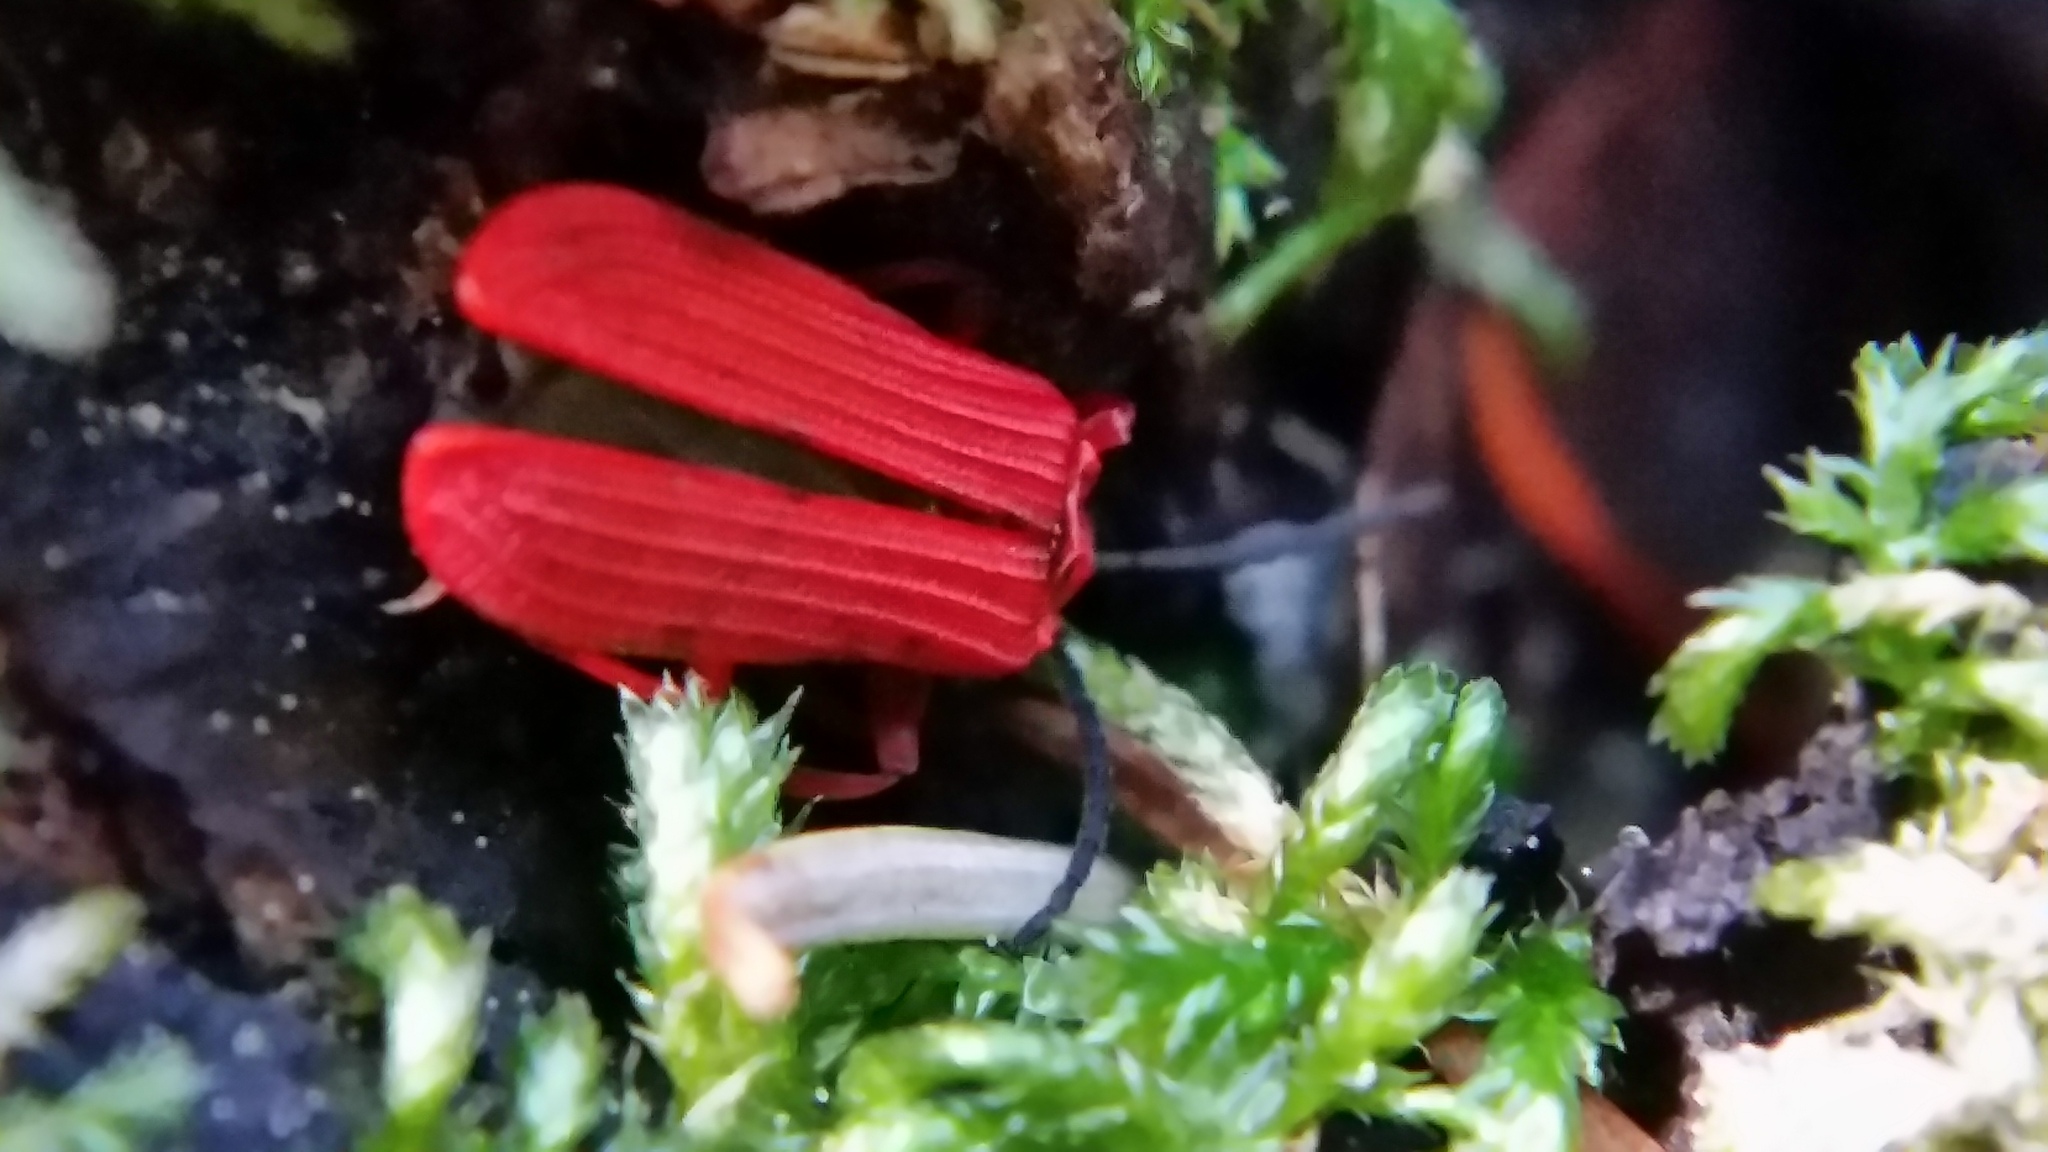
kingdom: Animalia
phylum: Arthropoda
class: Insecta
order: Coleoptera
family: Lycidae
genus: Dictyoptera
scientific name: Dictyoptera simplicipes
